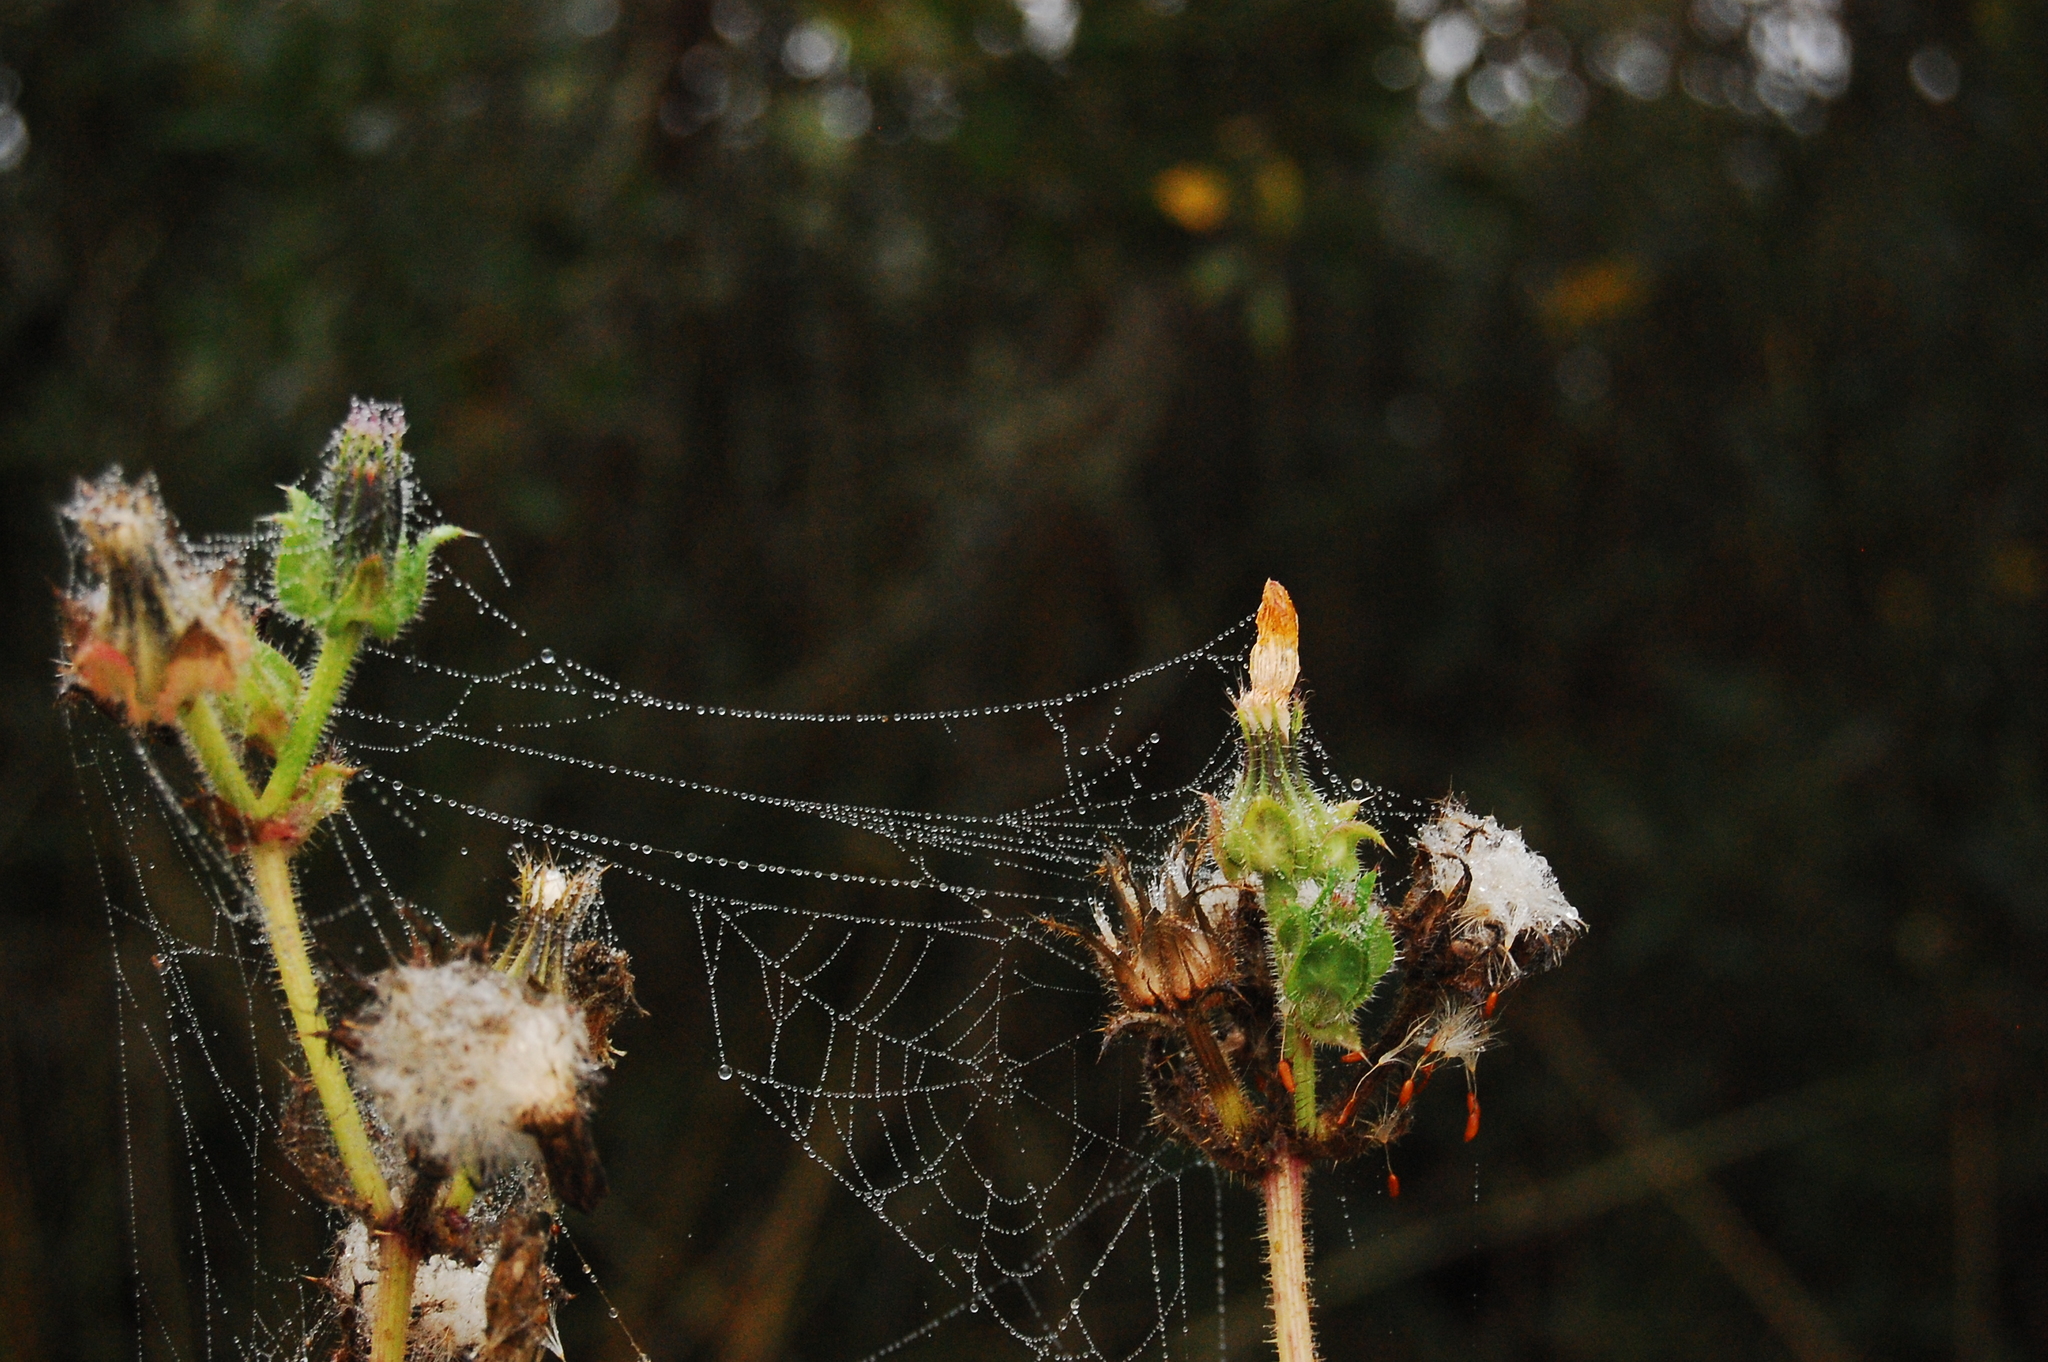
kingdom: Plantae
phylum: Tracheophyta
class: Magnoliopsida
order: Asterales
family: Asteraceae
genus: Helminthotheca
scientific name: Helminthotheca echioides
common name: Ox-tongue
